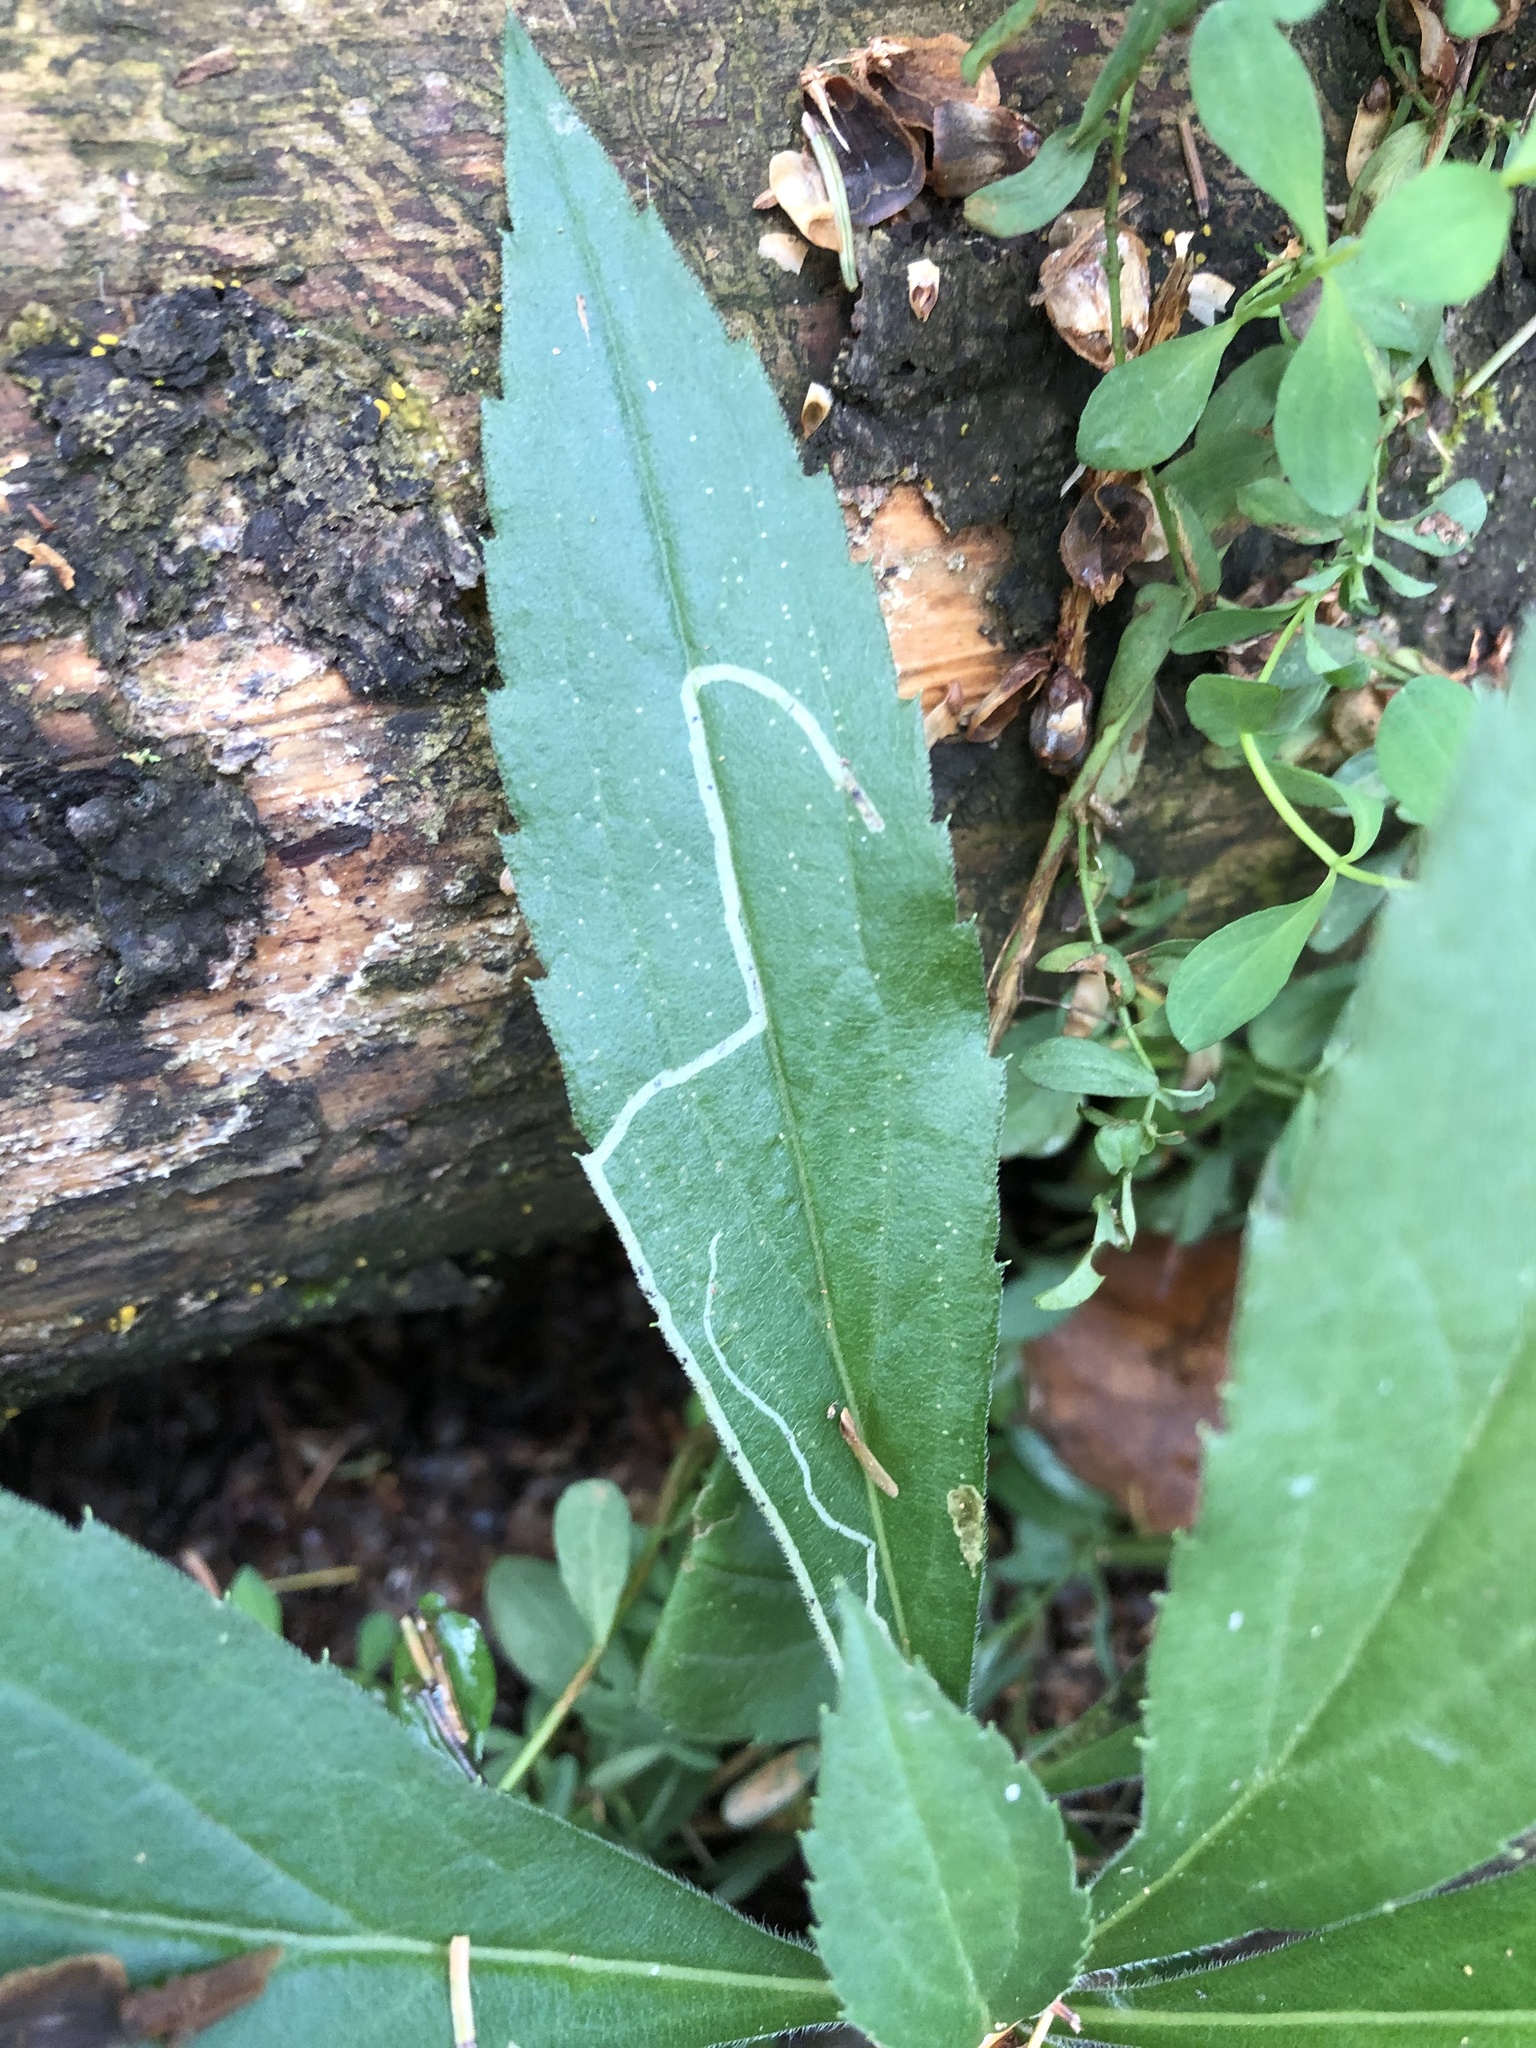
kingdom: Animalia
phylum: Arthropoda
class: Insecta
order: Diptera
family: Agromyzidae
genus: Ophiomyia
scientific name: Ophiomyia maura
